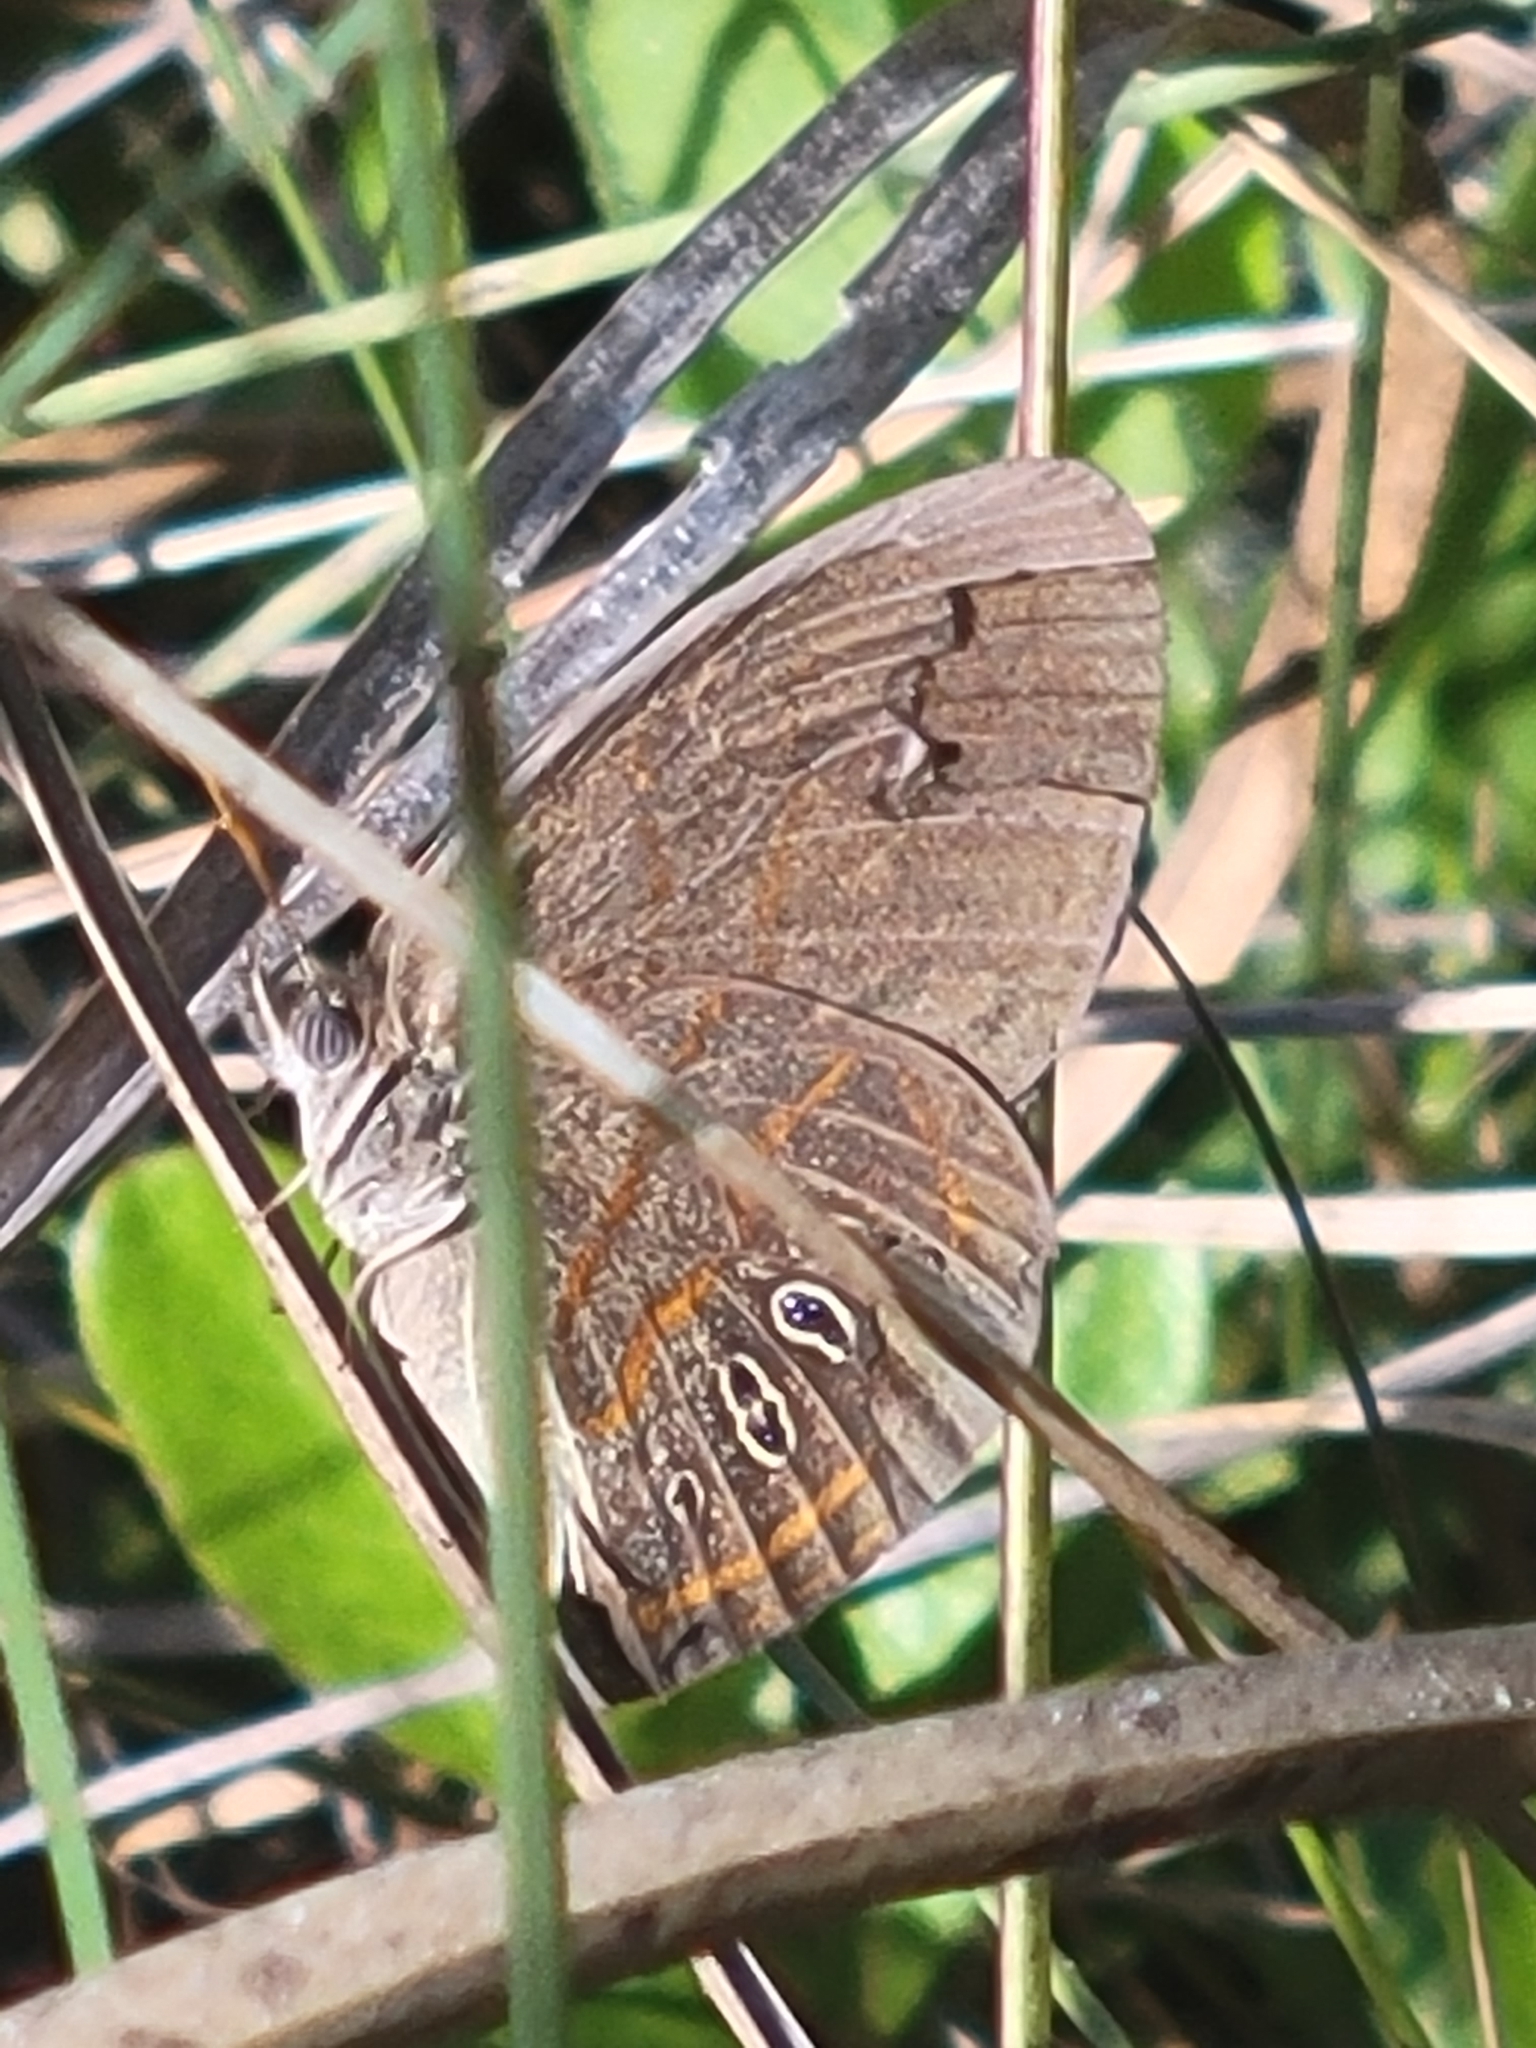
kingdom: Animalia
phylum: Arthropoda
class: Insecta
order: Lepidoptera
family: Nymphalidae
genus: Euptychia
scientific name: Euptychia phocion
